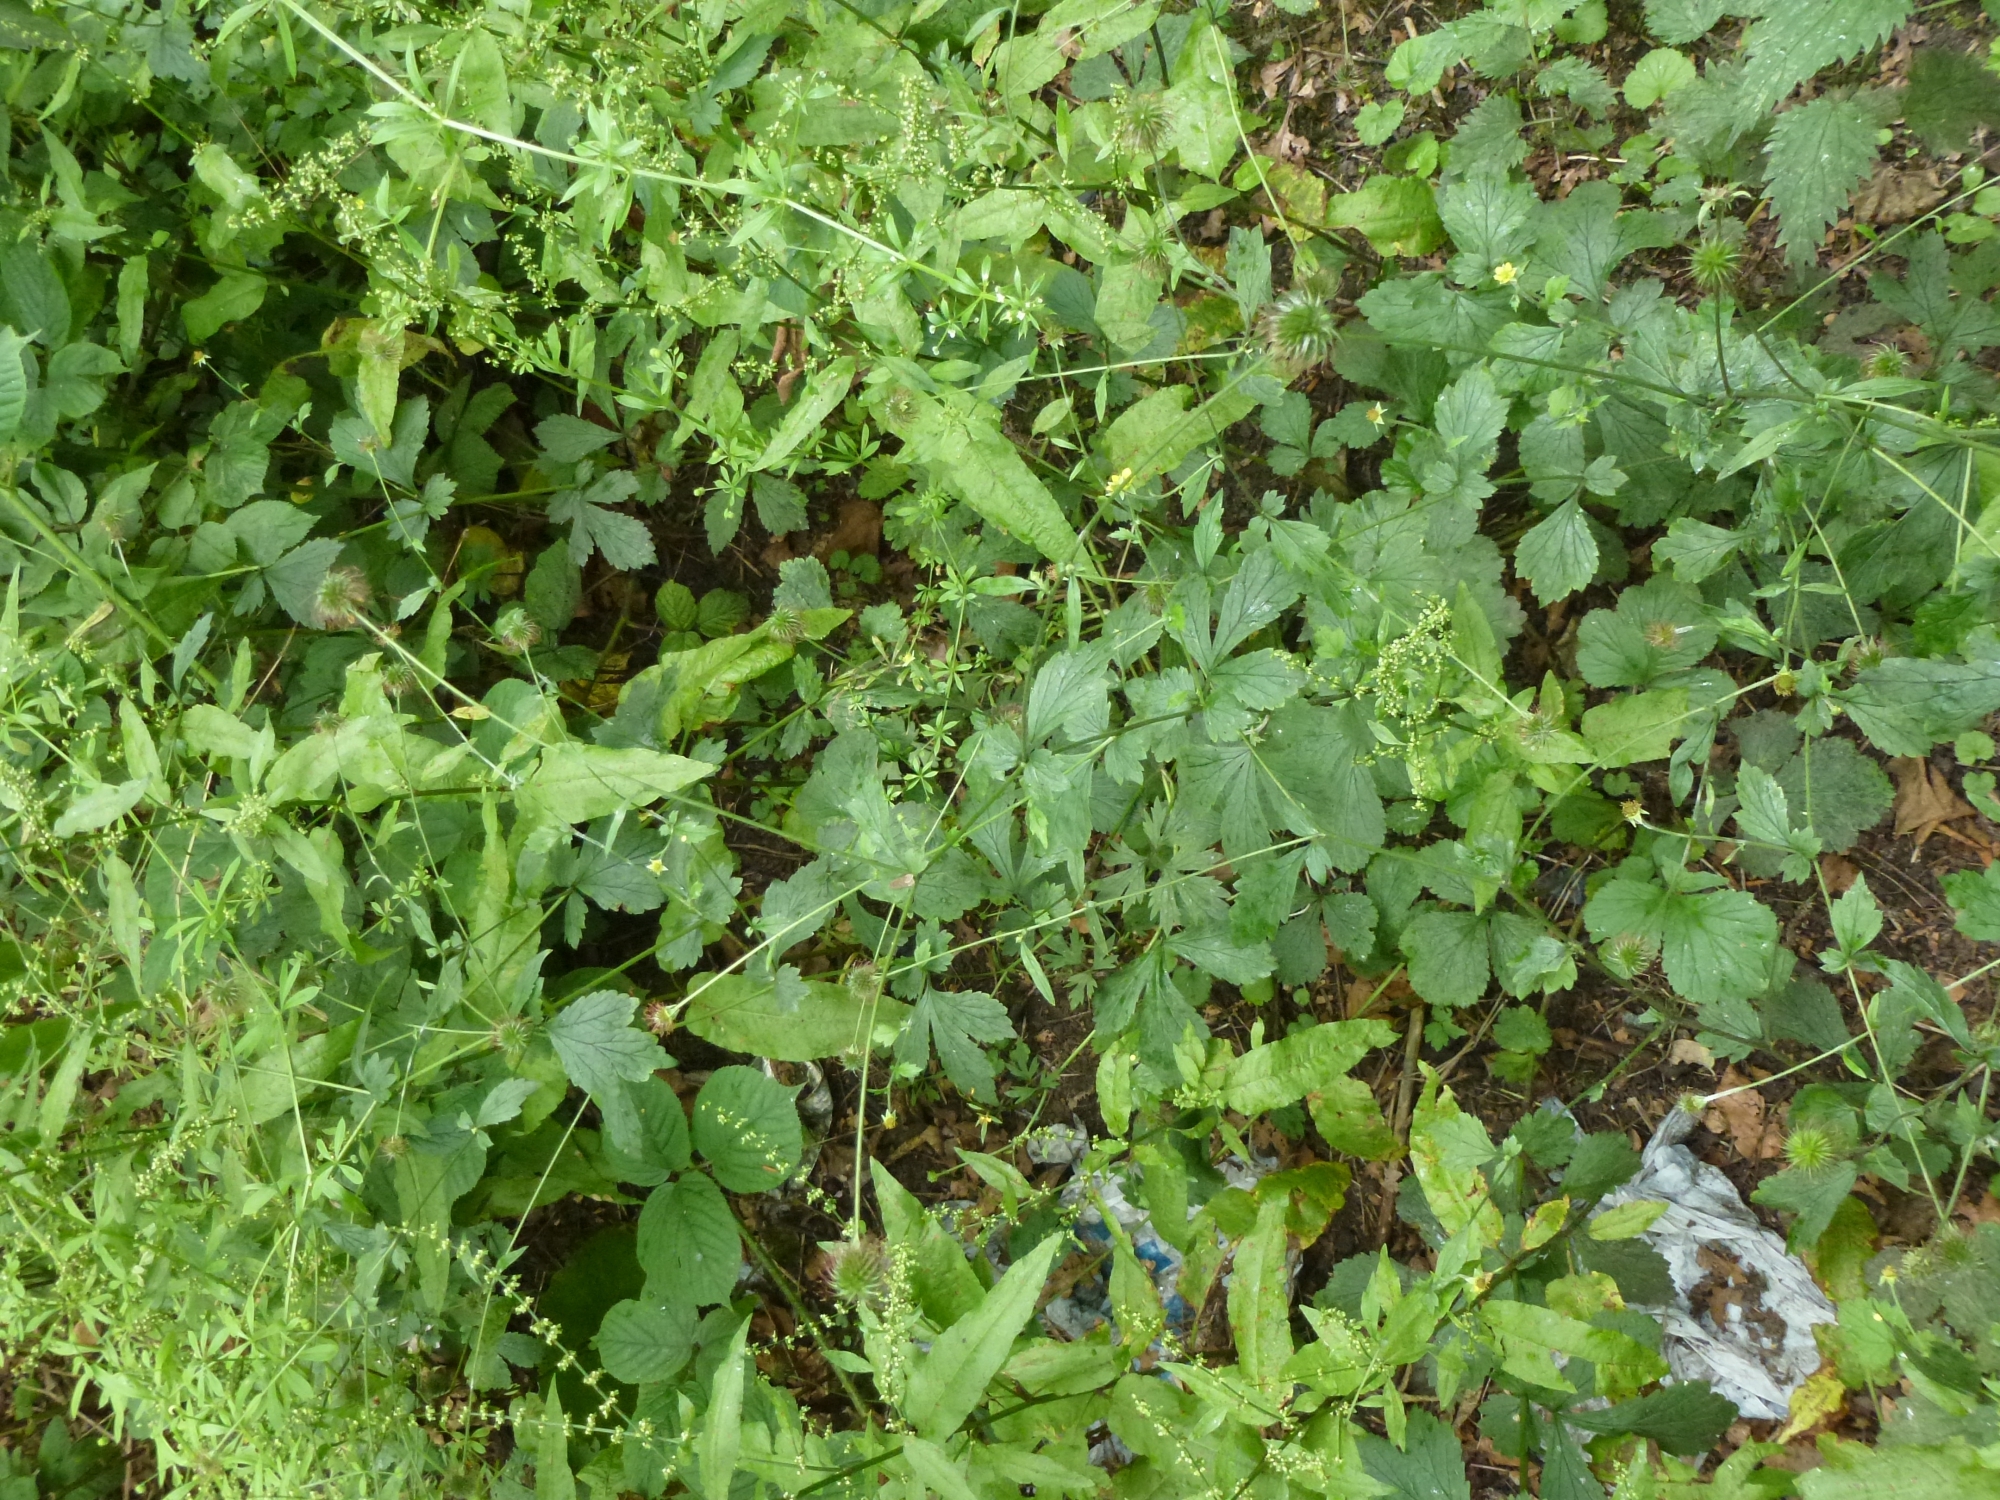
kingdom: Plantae
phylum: Tracheophyta
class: Magnoliopsida
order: Rosales
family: Rosaceae
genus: Geum
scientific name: Geum urbanum
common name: Wood avens
